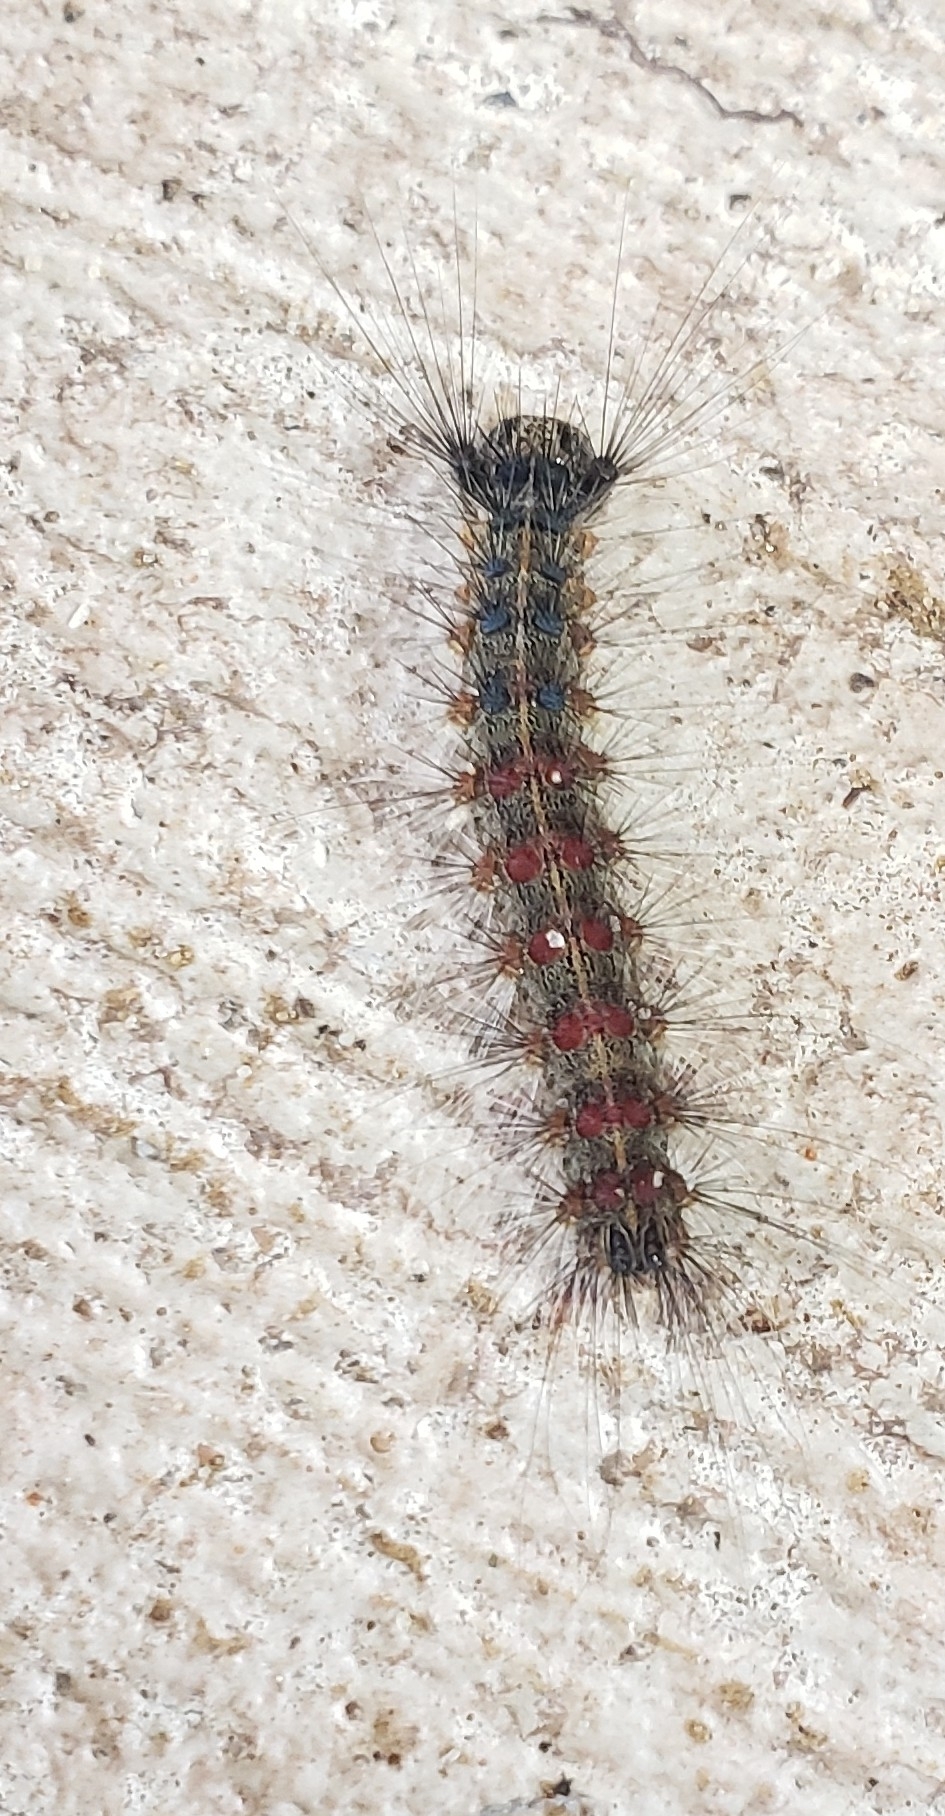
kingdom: Animalia
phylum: Arthropoda
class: Insecta
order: Lepidoptera
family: Erebidae
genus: Lymantria
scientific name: Lymantria dispar
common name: Gypsy moth
